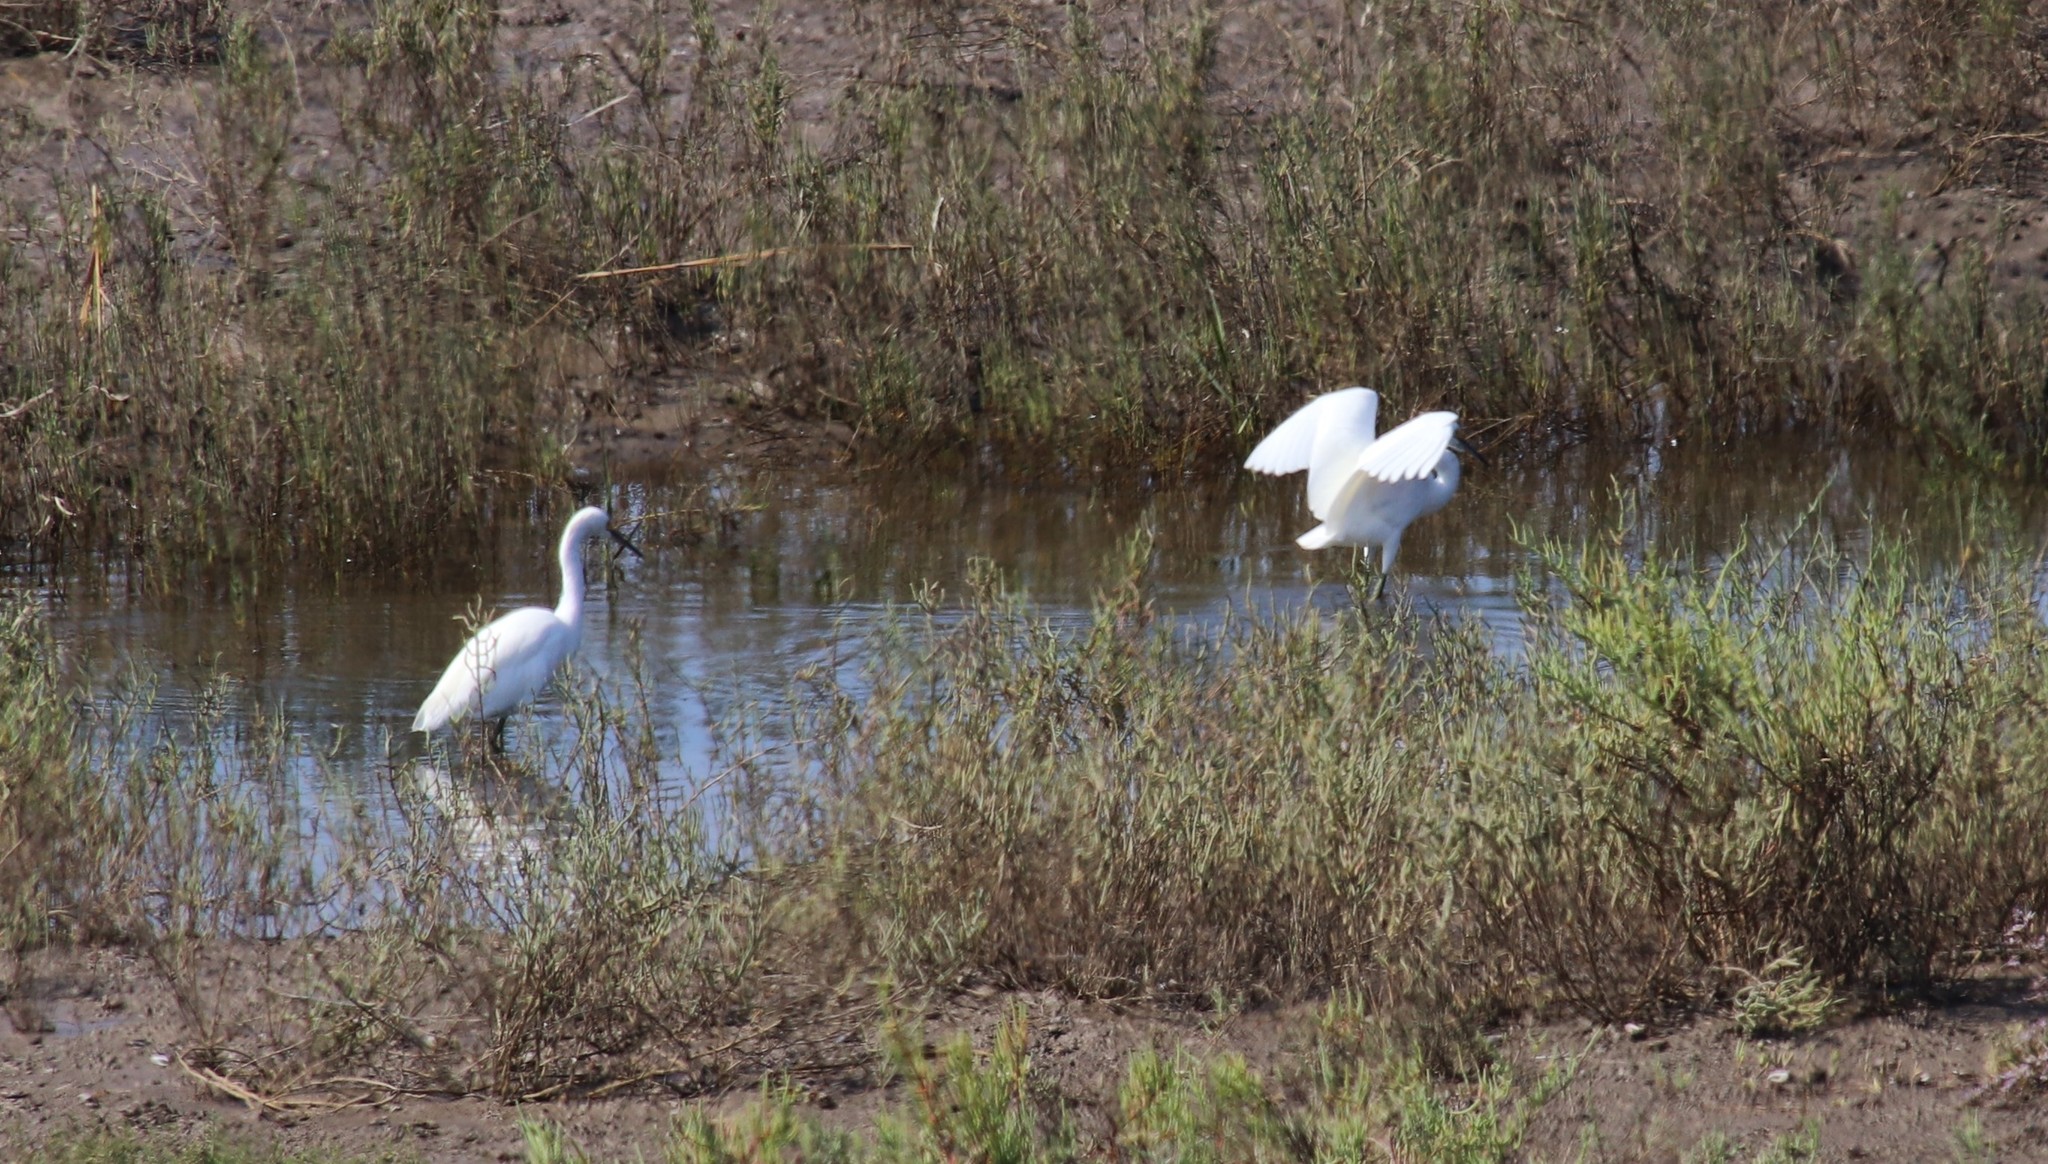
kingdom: Animalia
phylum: Chordata
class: Aves
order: Pelecaniformes
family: Ardeidae
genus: Egretta
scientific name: Egretta thula
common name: Snowy egret
